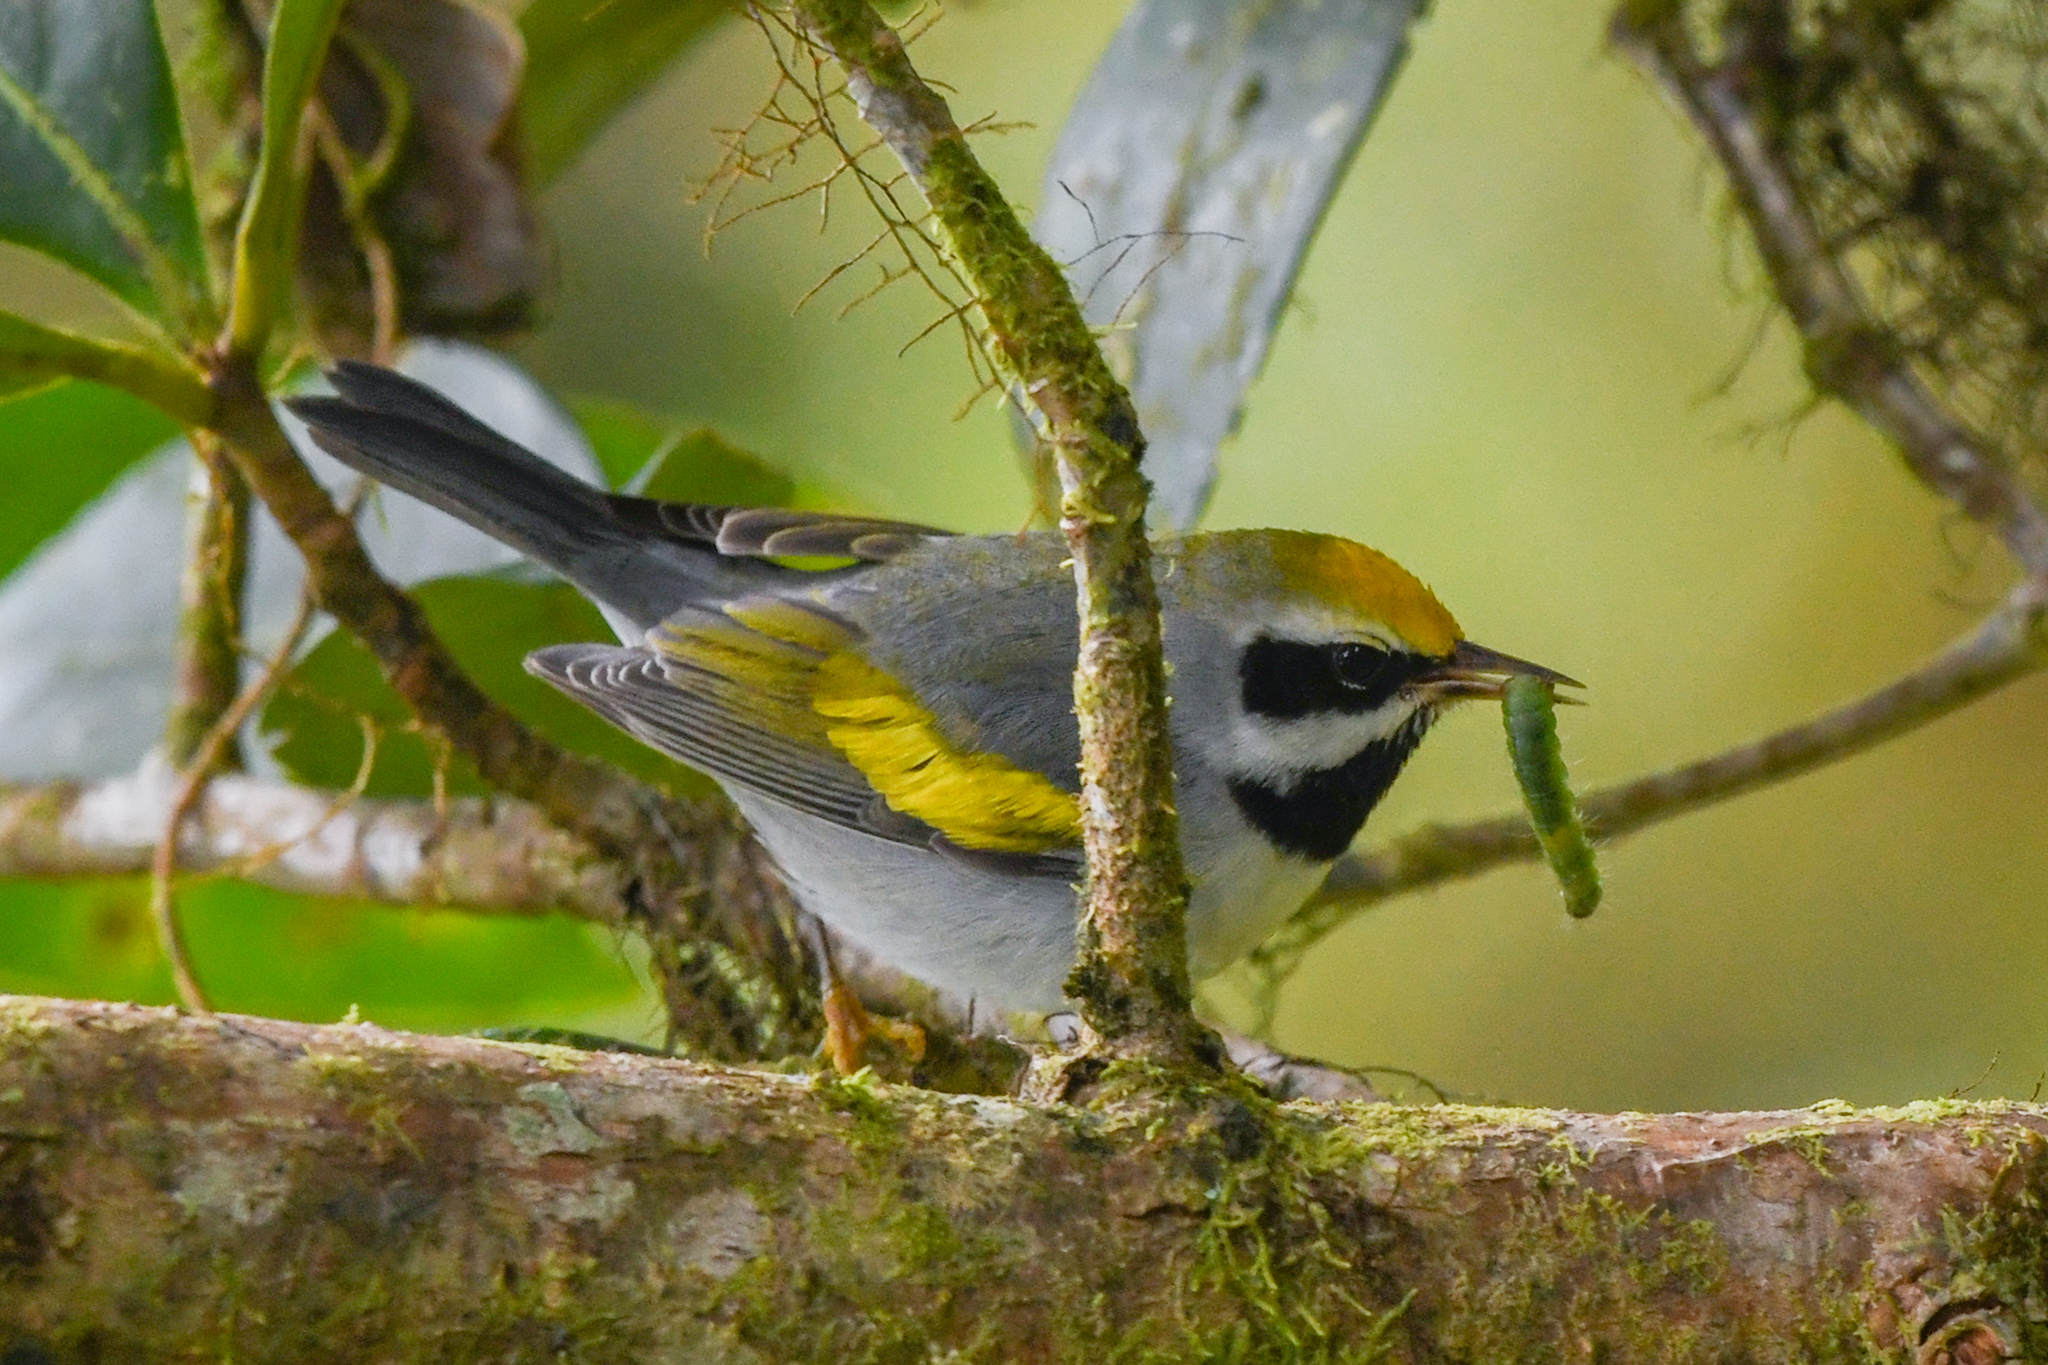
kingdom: Animalia
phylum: Chordata
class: Aves
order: Passeriformes
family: Parulidae
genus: Vermivora
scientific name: Vermivora chrysoptera
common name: Golden-winged warbler
